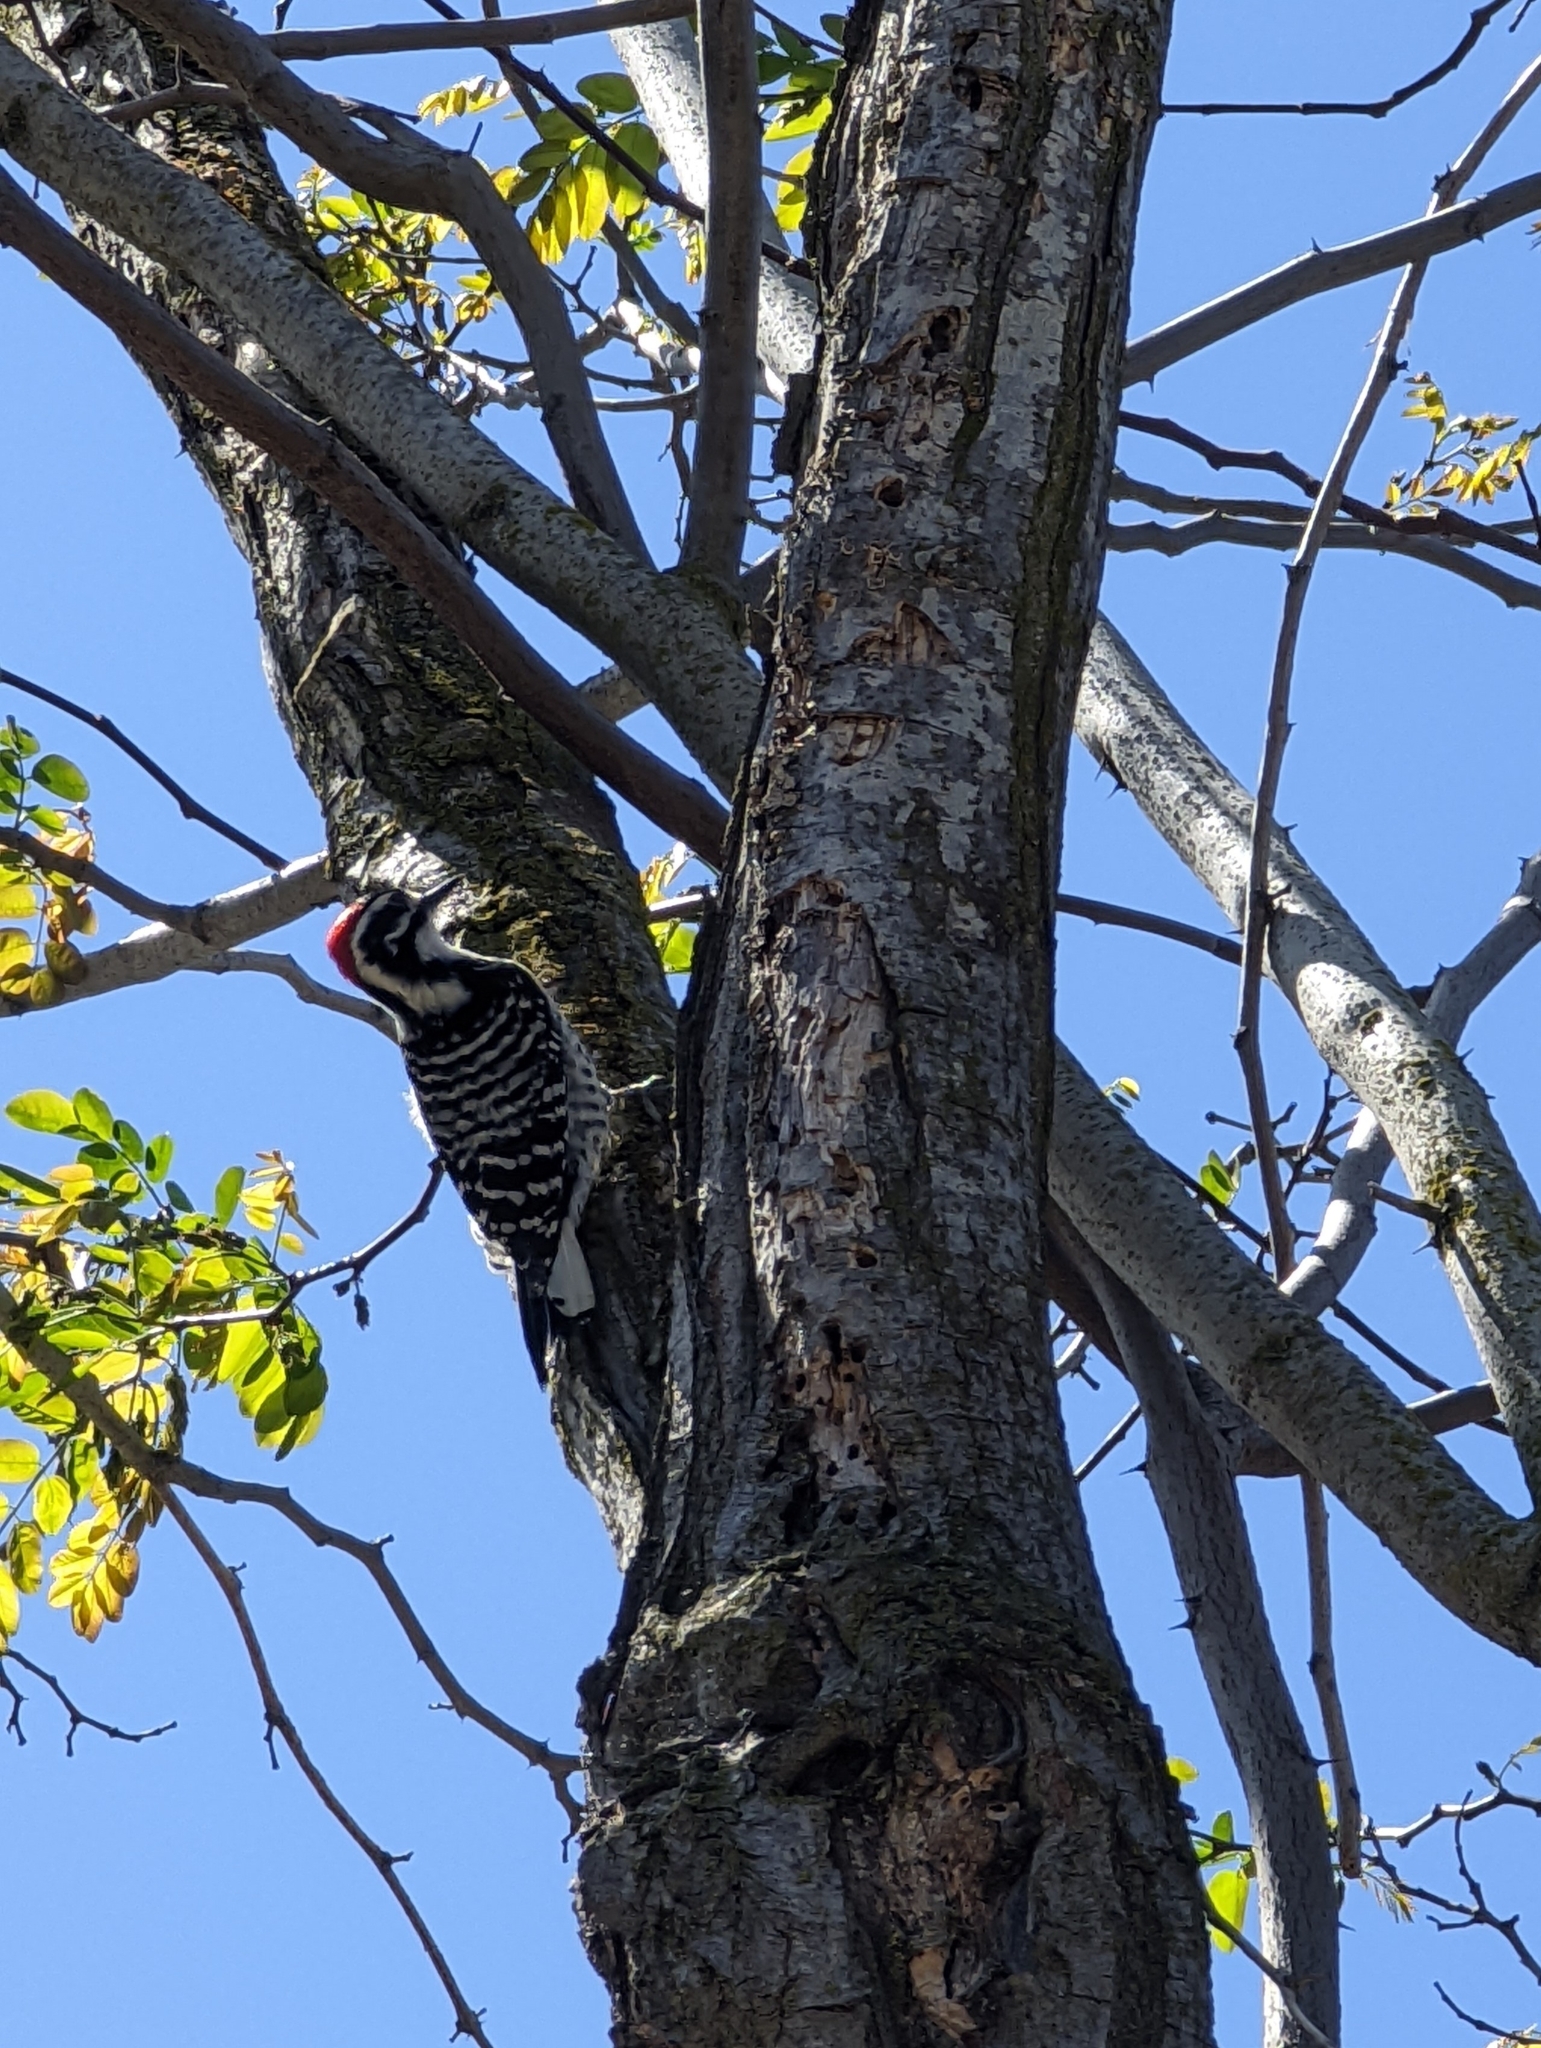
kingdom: Animalia
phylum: Chordata
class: Aves
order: Piciformes
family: Picidae
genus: Dryobates
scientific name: Dryobates nuttallii
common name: Nuttall's woodpecker
